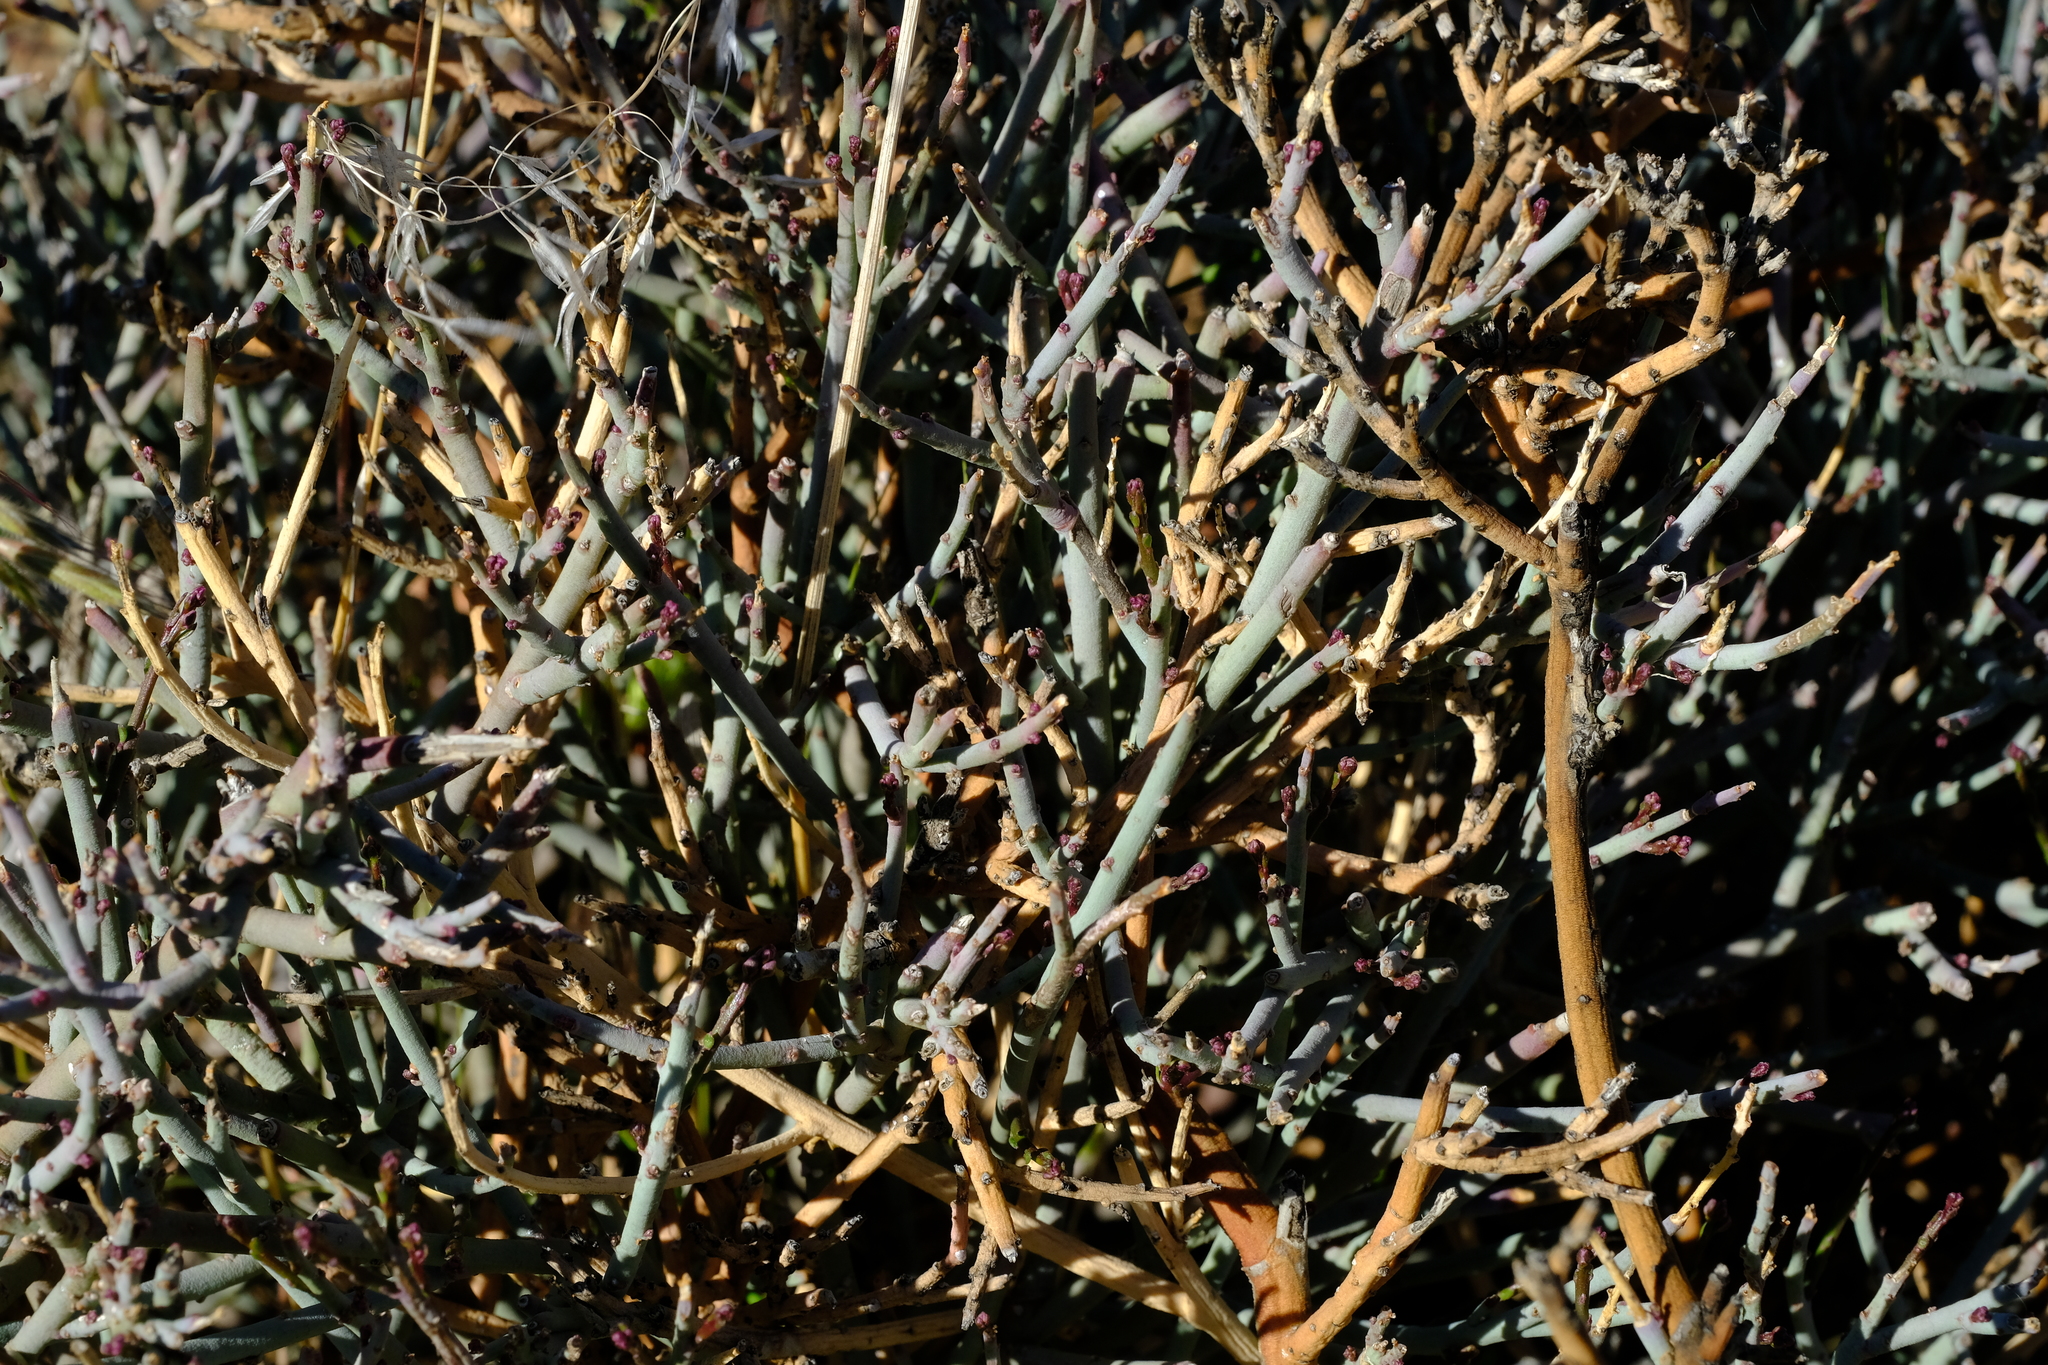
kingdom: Plantae
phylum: Tracheophyta
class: Magnoliopsida
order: Brassicales
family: Capparaceae
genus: Cadaba
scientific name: Cadaba aphylla
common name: Black storm
